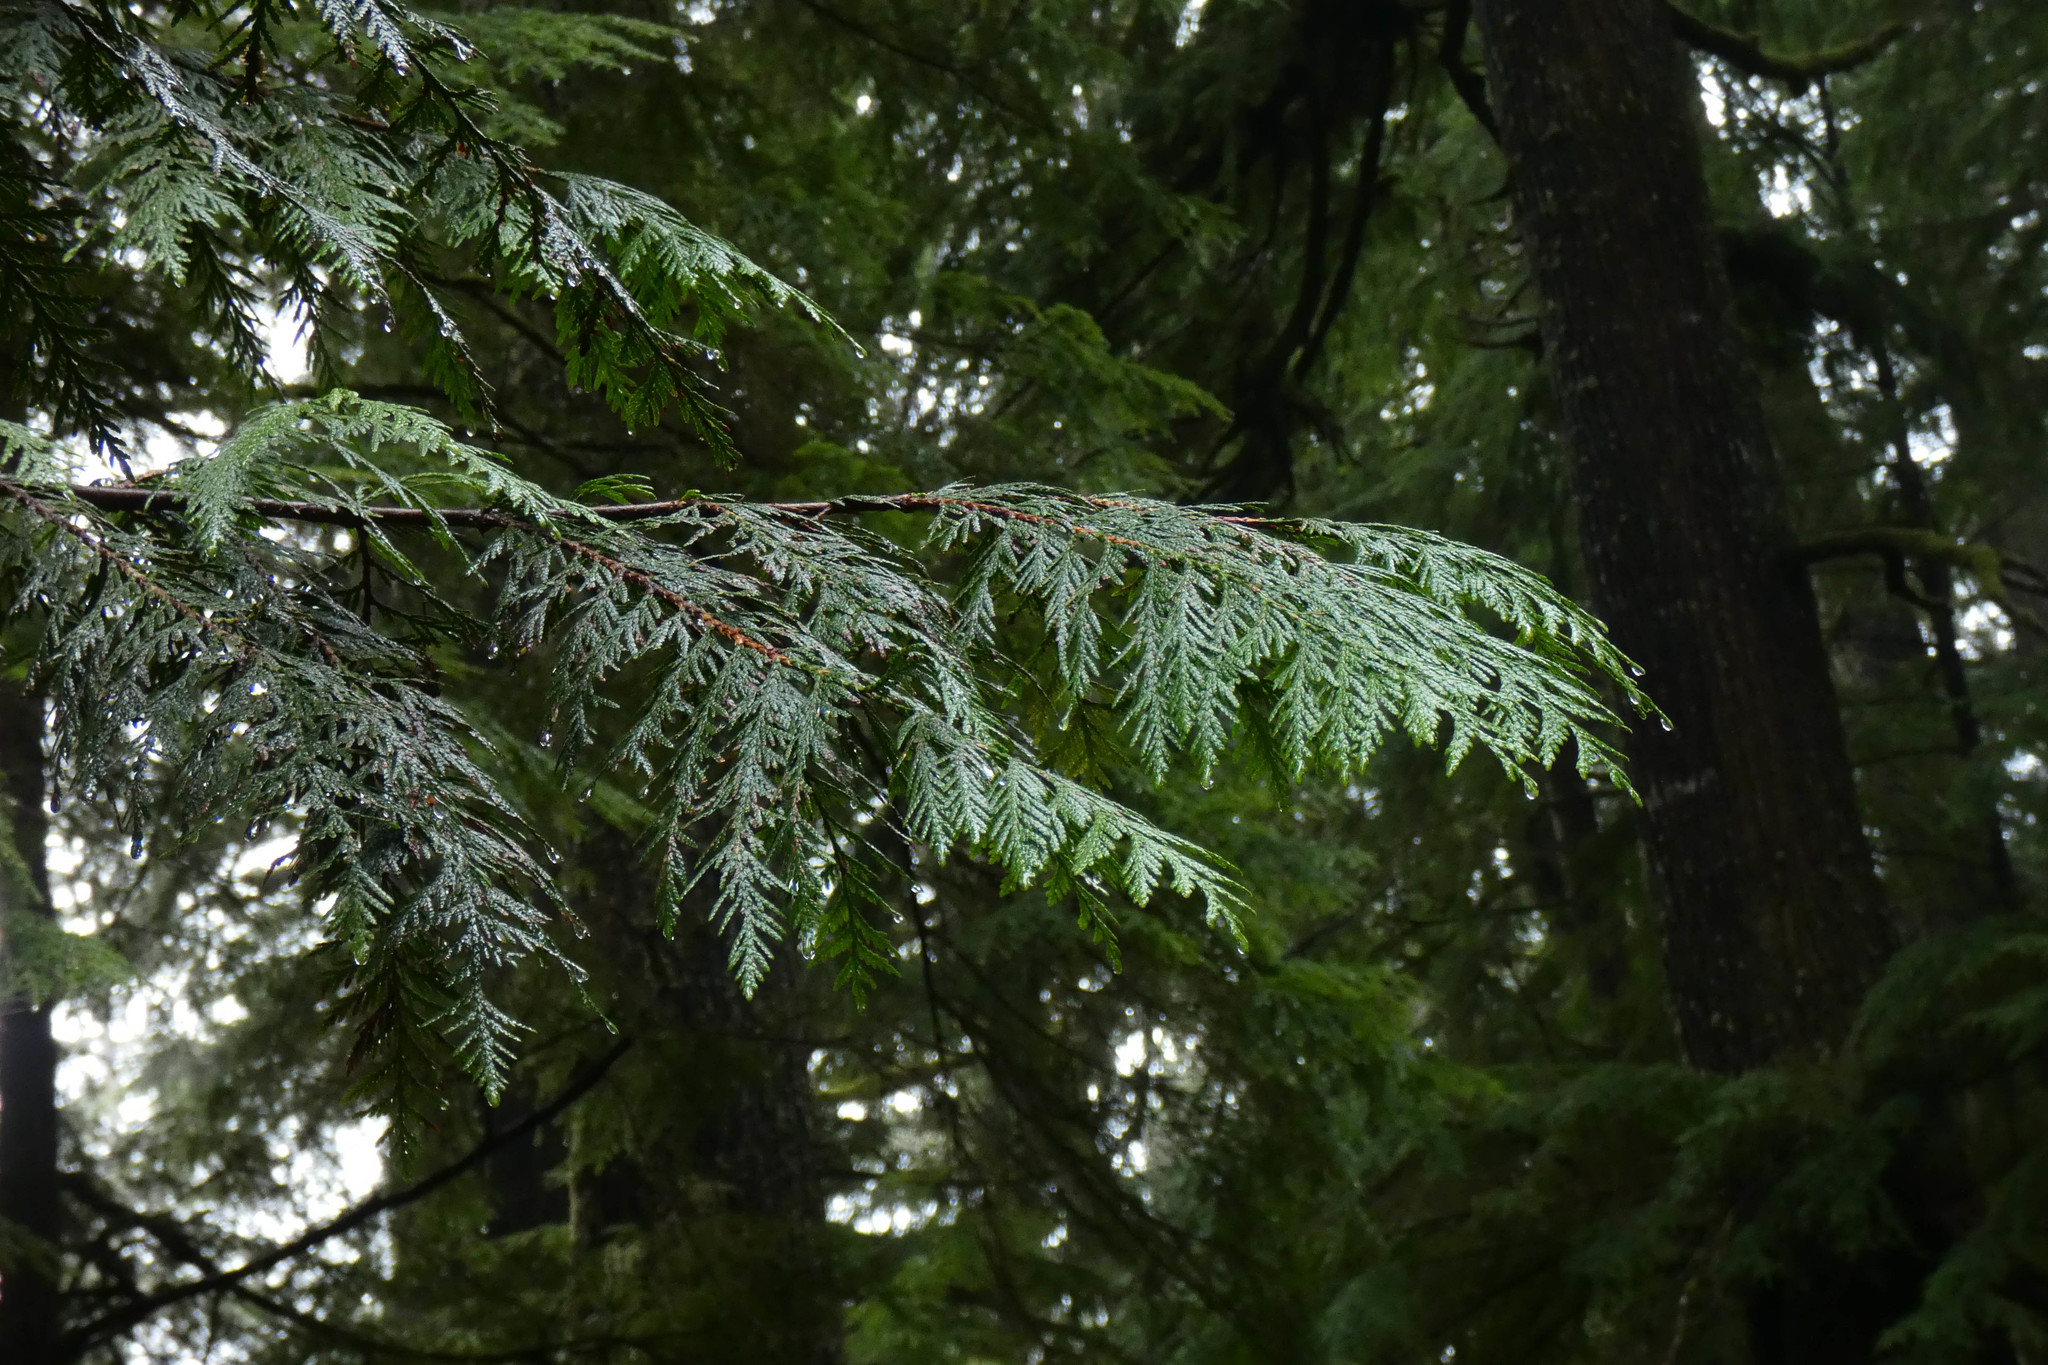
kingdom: Plantae
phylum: Tracheophyta
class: Pinopsida
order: Pinales
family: Cupressaceae
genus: Thuja
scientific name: Thuja plicata
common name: Western red-cedar
